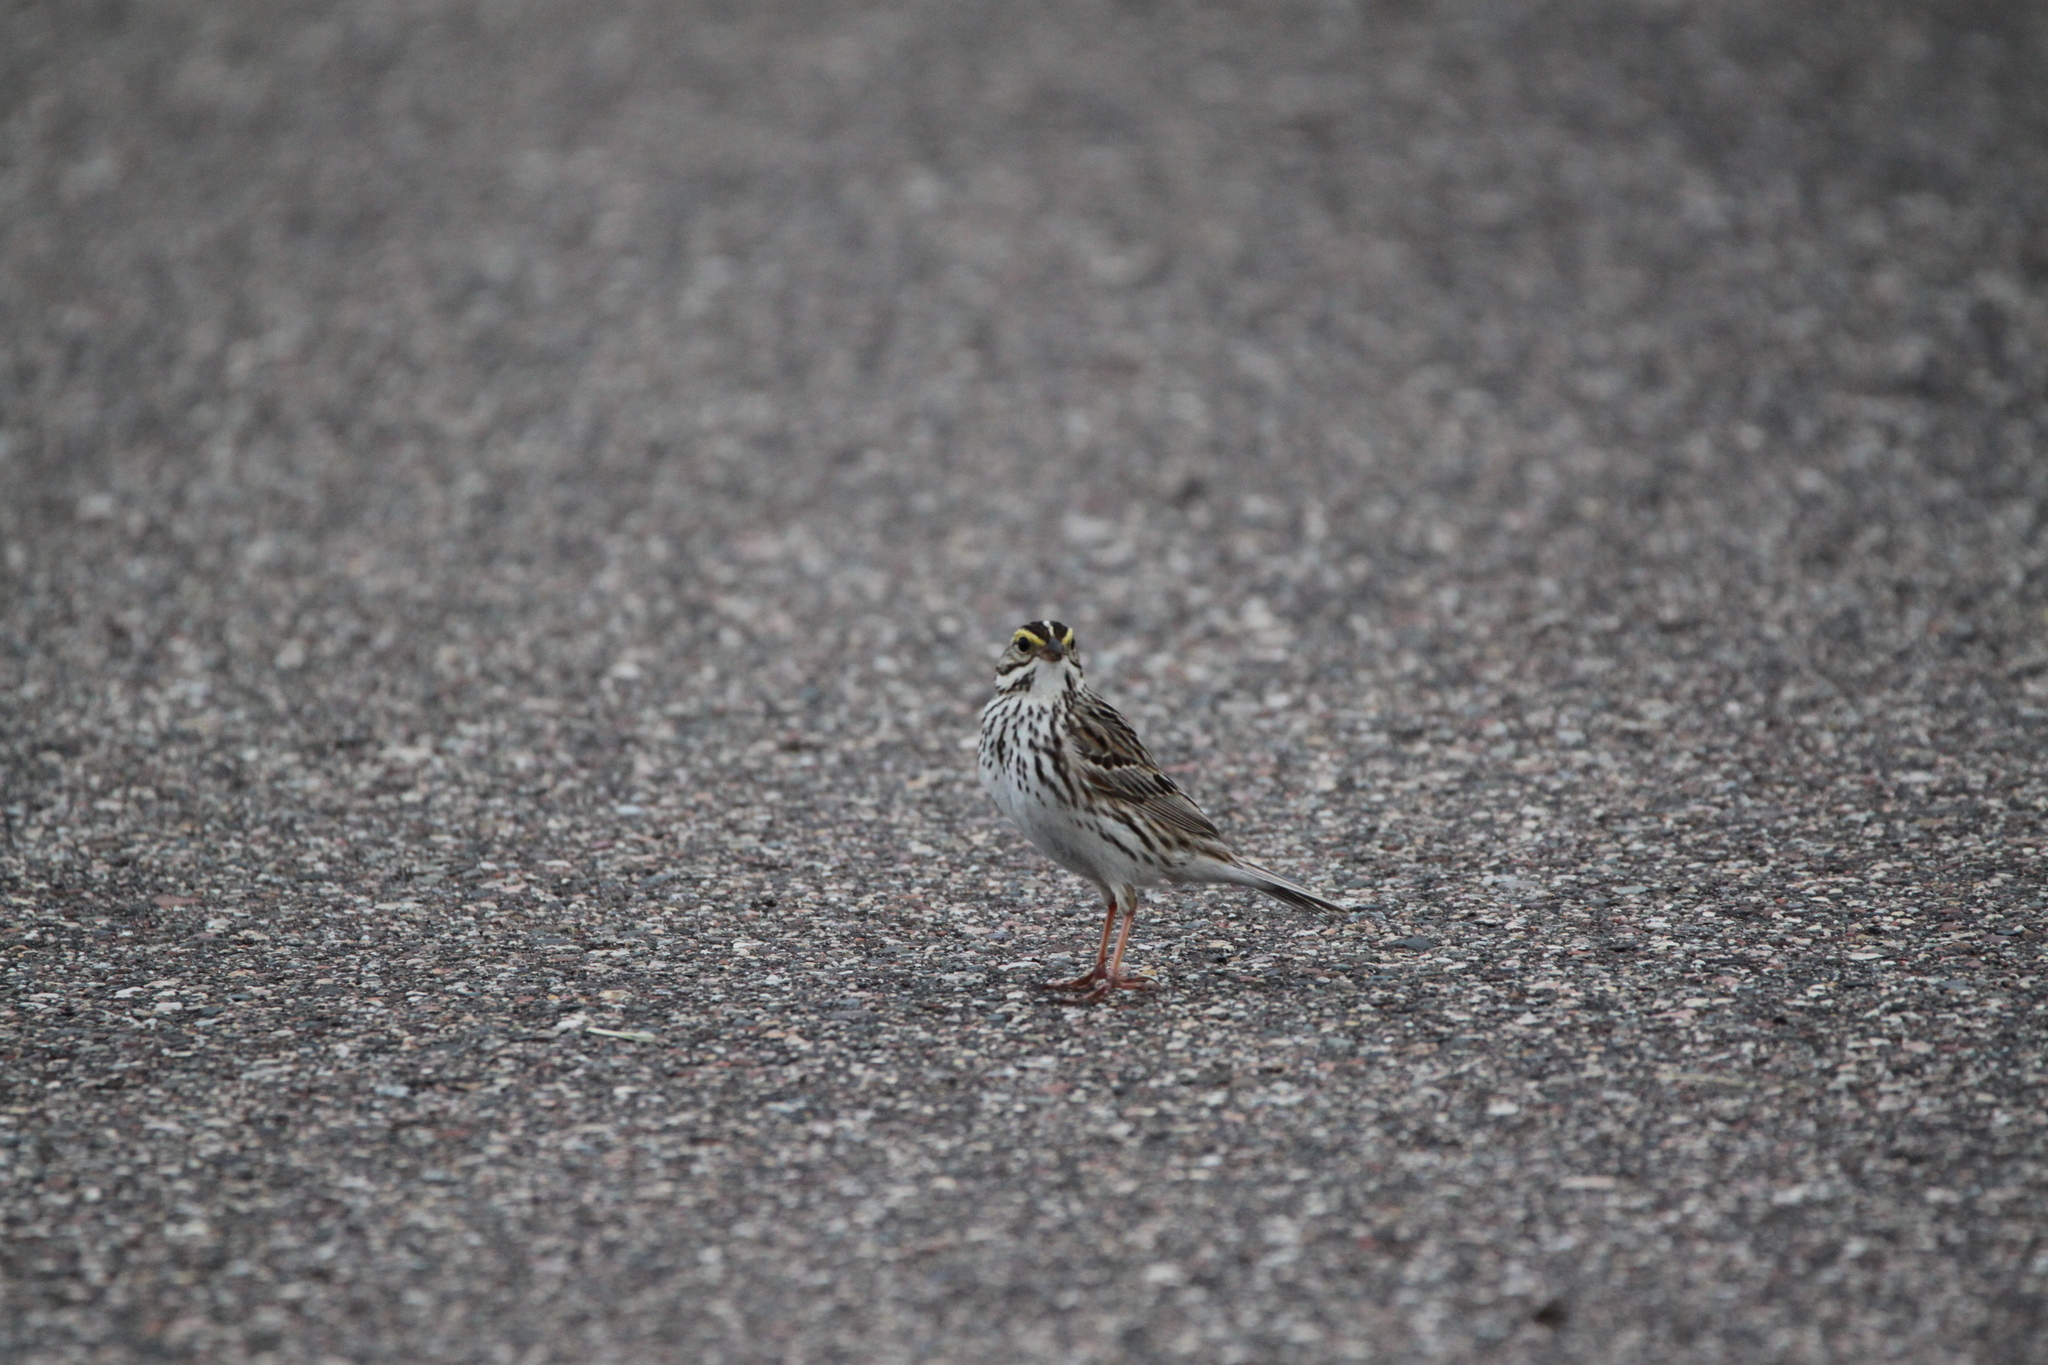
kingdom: Animalia
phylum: Chordata
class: Aves
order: Passeriformes
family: Passerellidae
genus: Passerculus
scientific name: Passerculus sandwichensis
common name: Savannah sparrow
